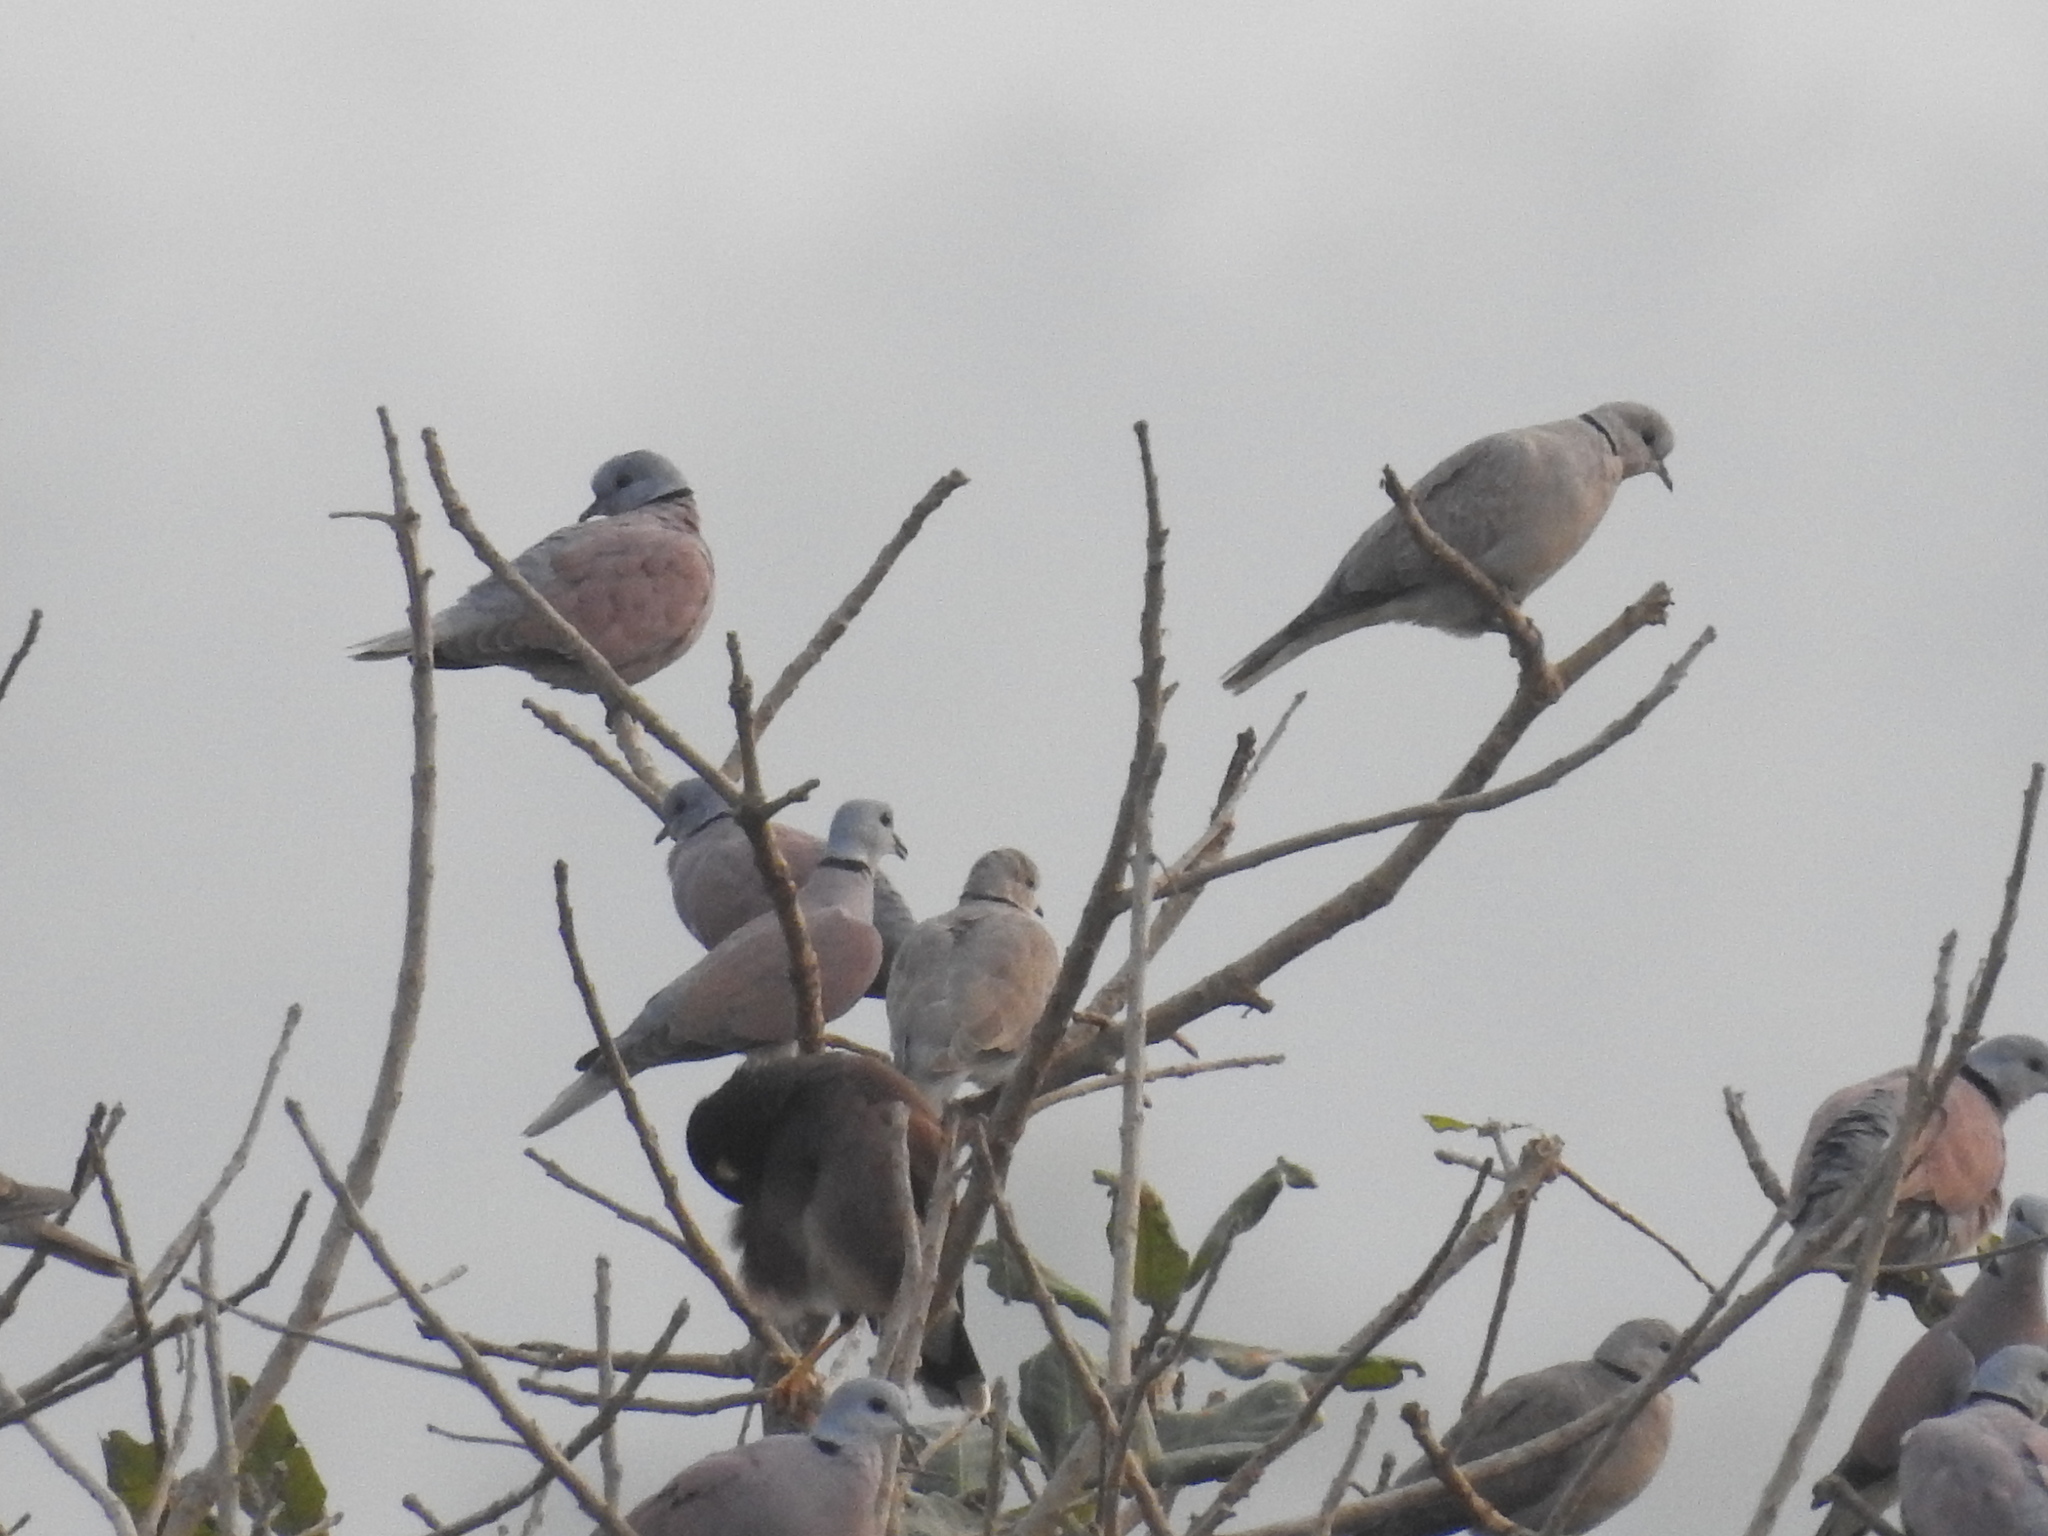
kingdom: Animalia
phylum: Chordata
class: Aves
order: Columbiformes
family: Columbidae
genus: Streptopelia
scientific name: Streptopelia tranquebarica
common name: Red turtle dove
